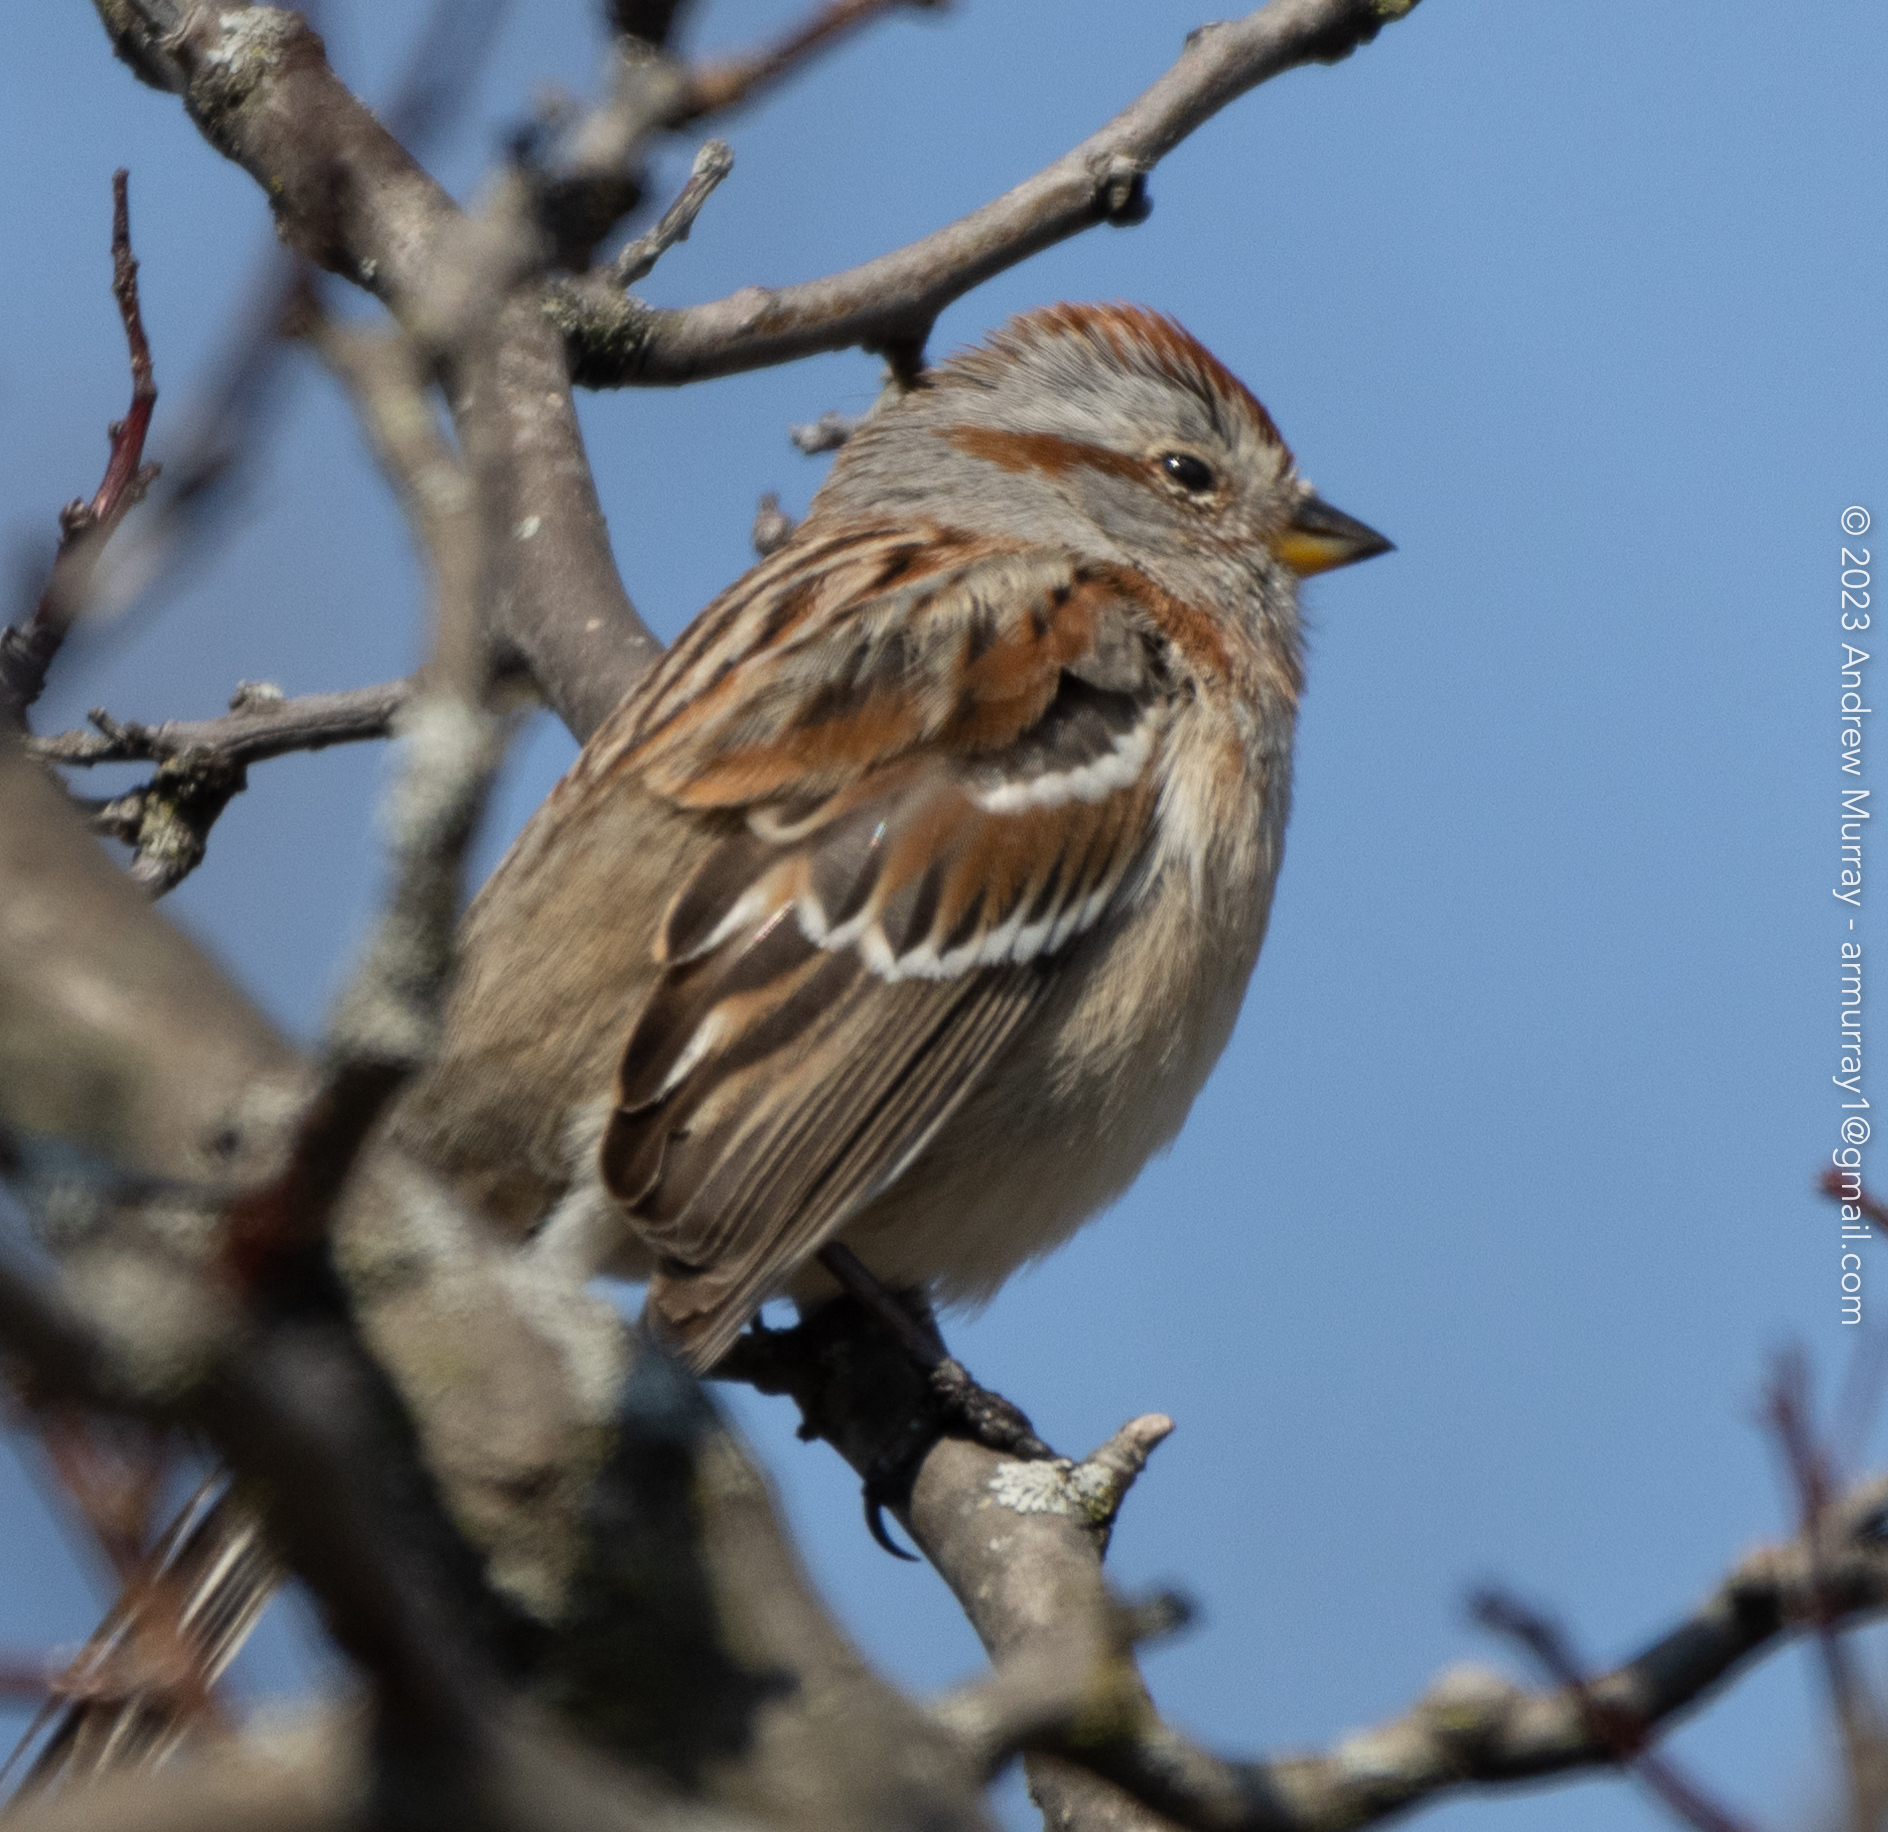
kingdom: Animalia
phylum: Chordata
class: Aves
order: Passeriformes
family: Passerellidae
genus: Spizelloides
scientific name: Spizelloides arborea
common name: American tree sparrow
